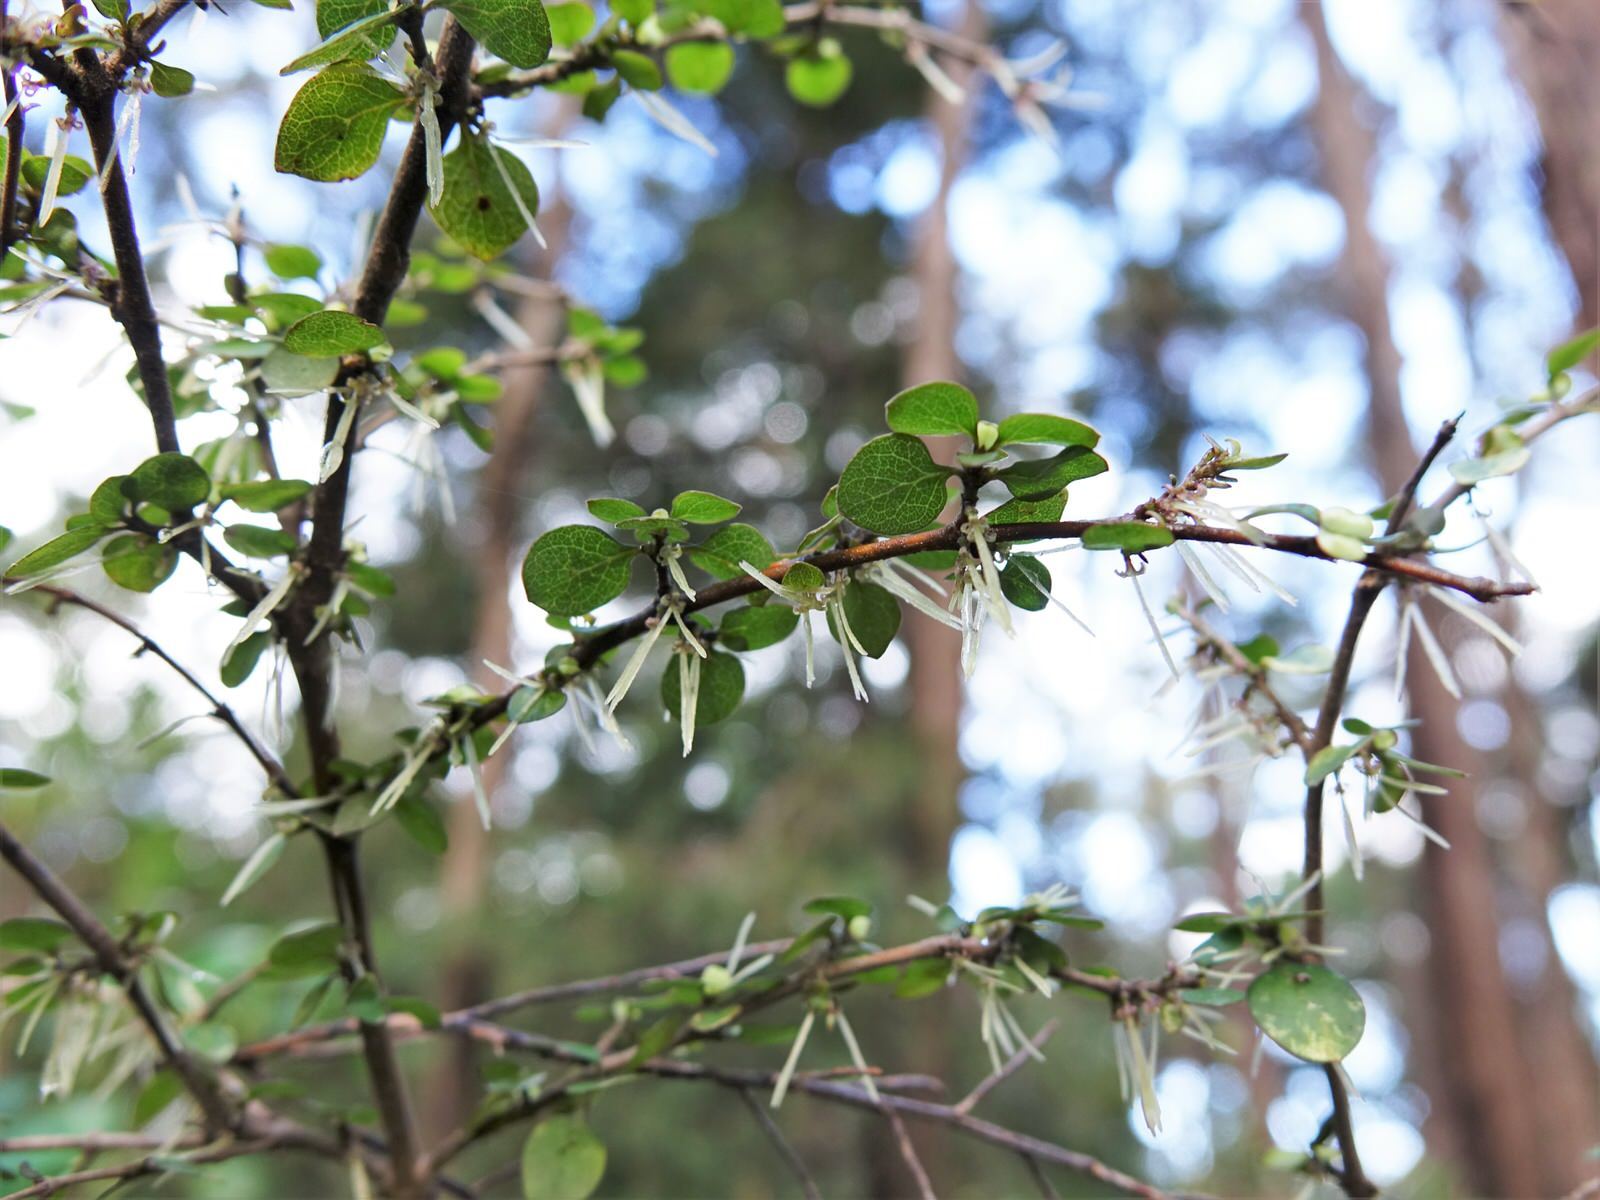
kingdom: Plantae
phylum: Tracheophyta
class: Magnoliopsida
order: Gentianales
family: Rubiaceae
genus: Coprosma
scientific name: Coprosma rhamnoides
